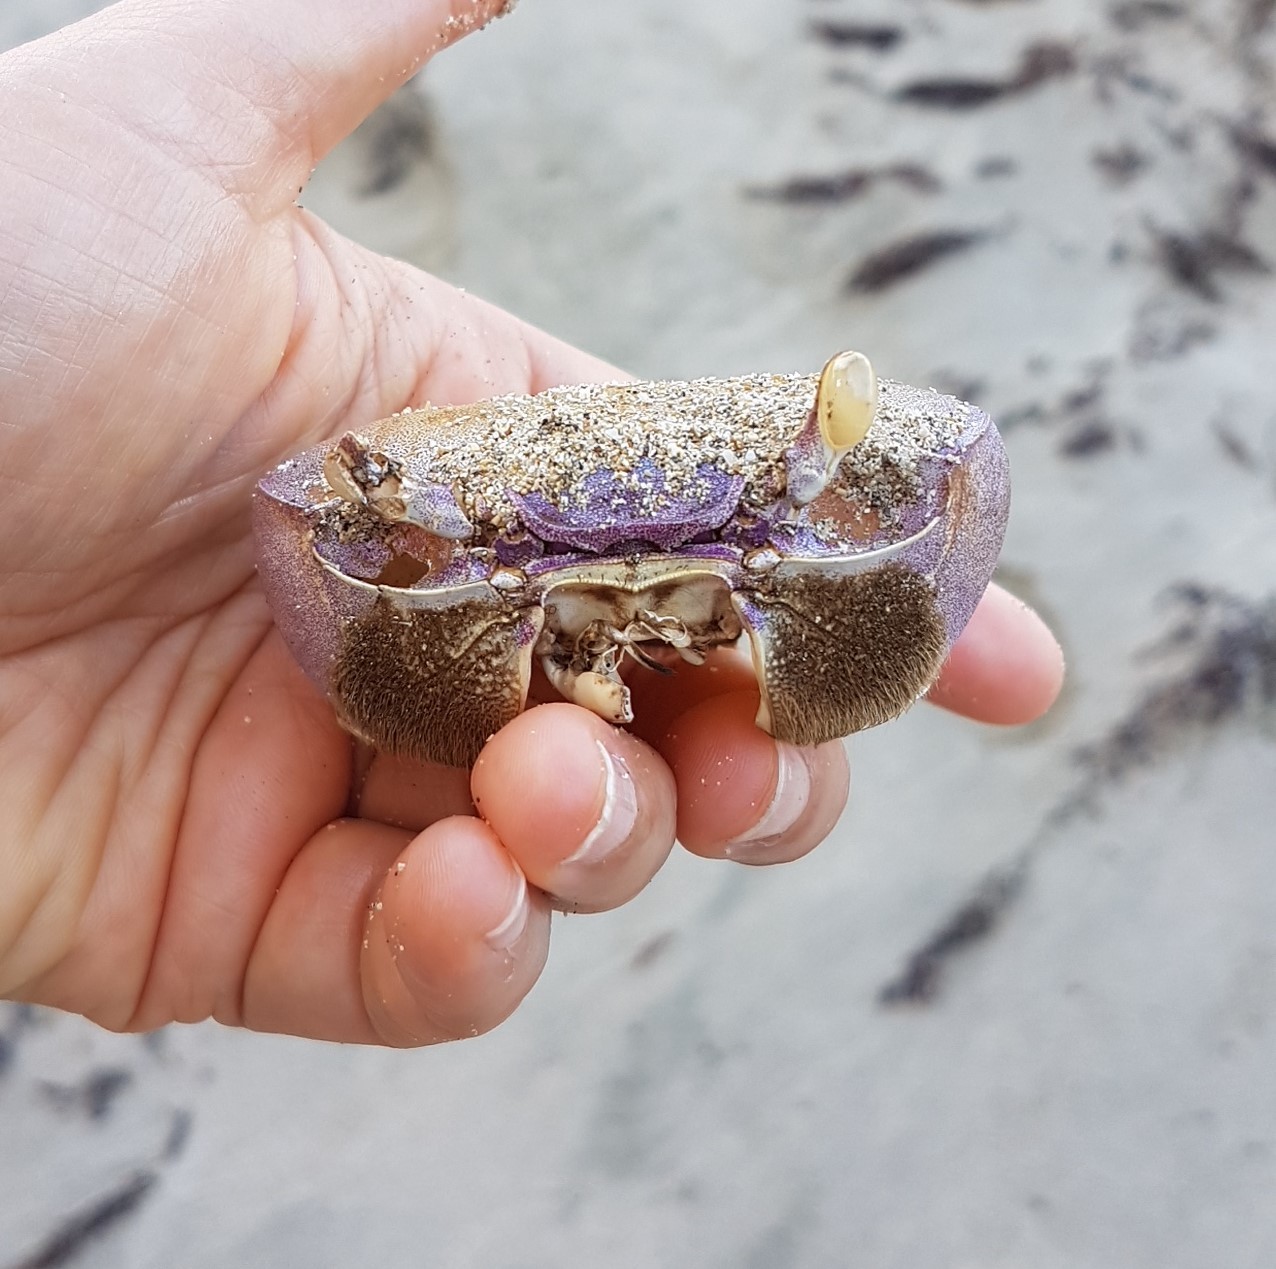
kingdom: Animalia
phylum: Arthropoda
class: Malacostraca
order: Decapoda
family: Gecarcinidae
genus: Cardisoma
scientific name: Cardisoma guanhumi
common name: Great land crab
